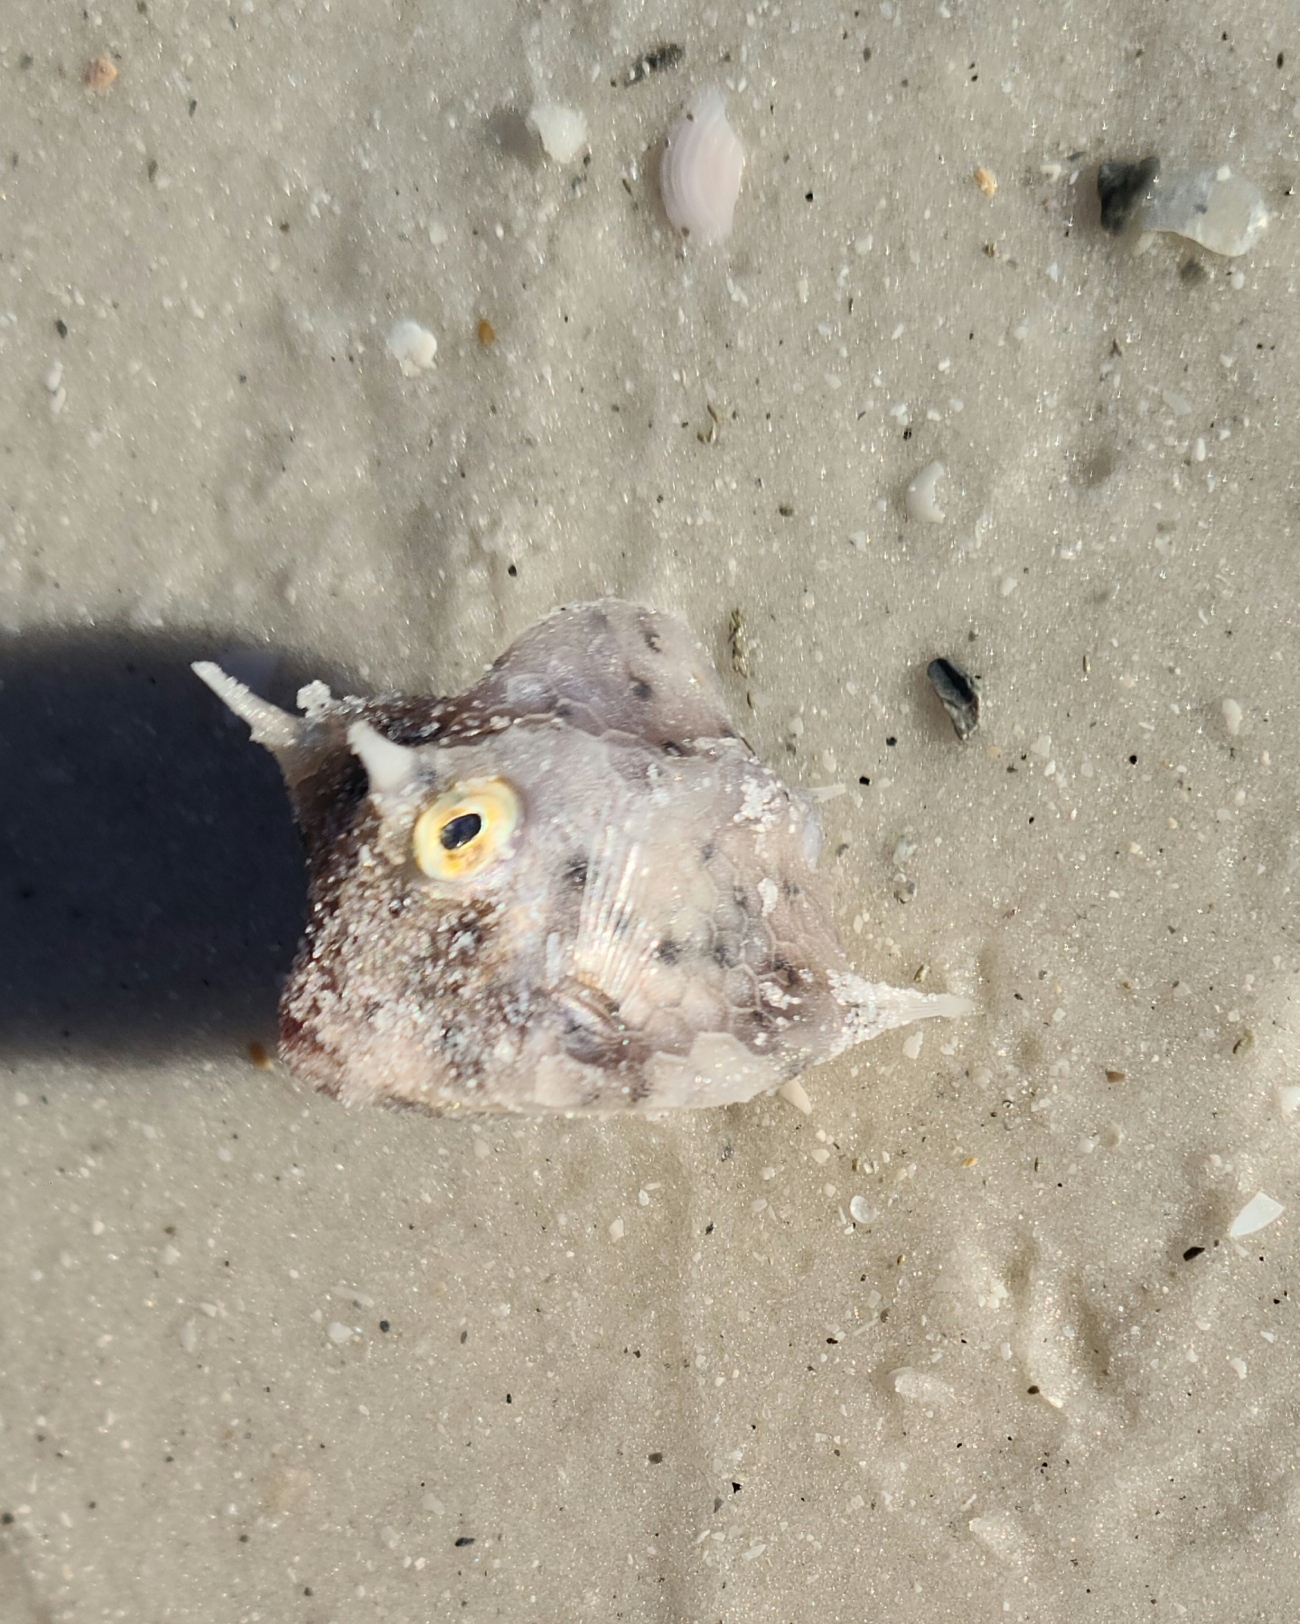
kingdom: Animalia
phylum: Chordata
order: Tetraodontiformes
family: Ostraciidae
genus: Acanthostracion
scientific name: Acanthostracion quadricornis
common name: Scrawled cowfish
